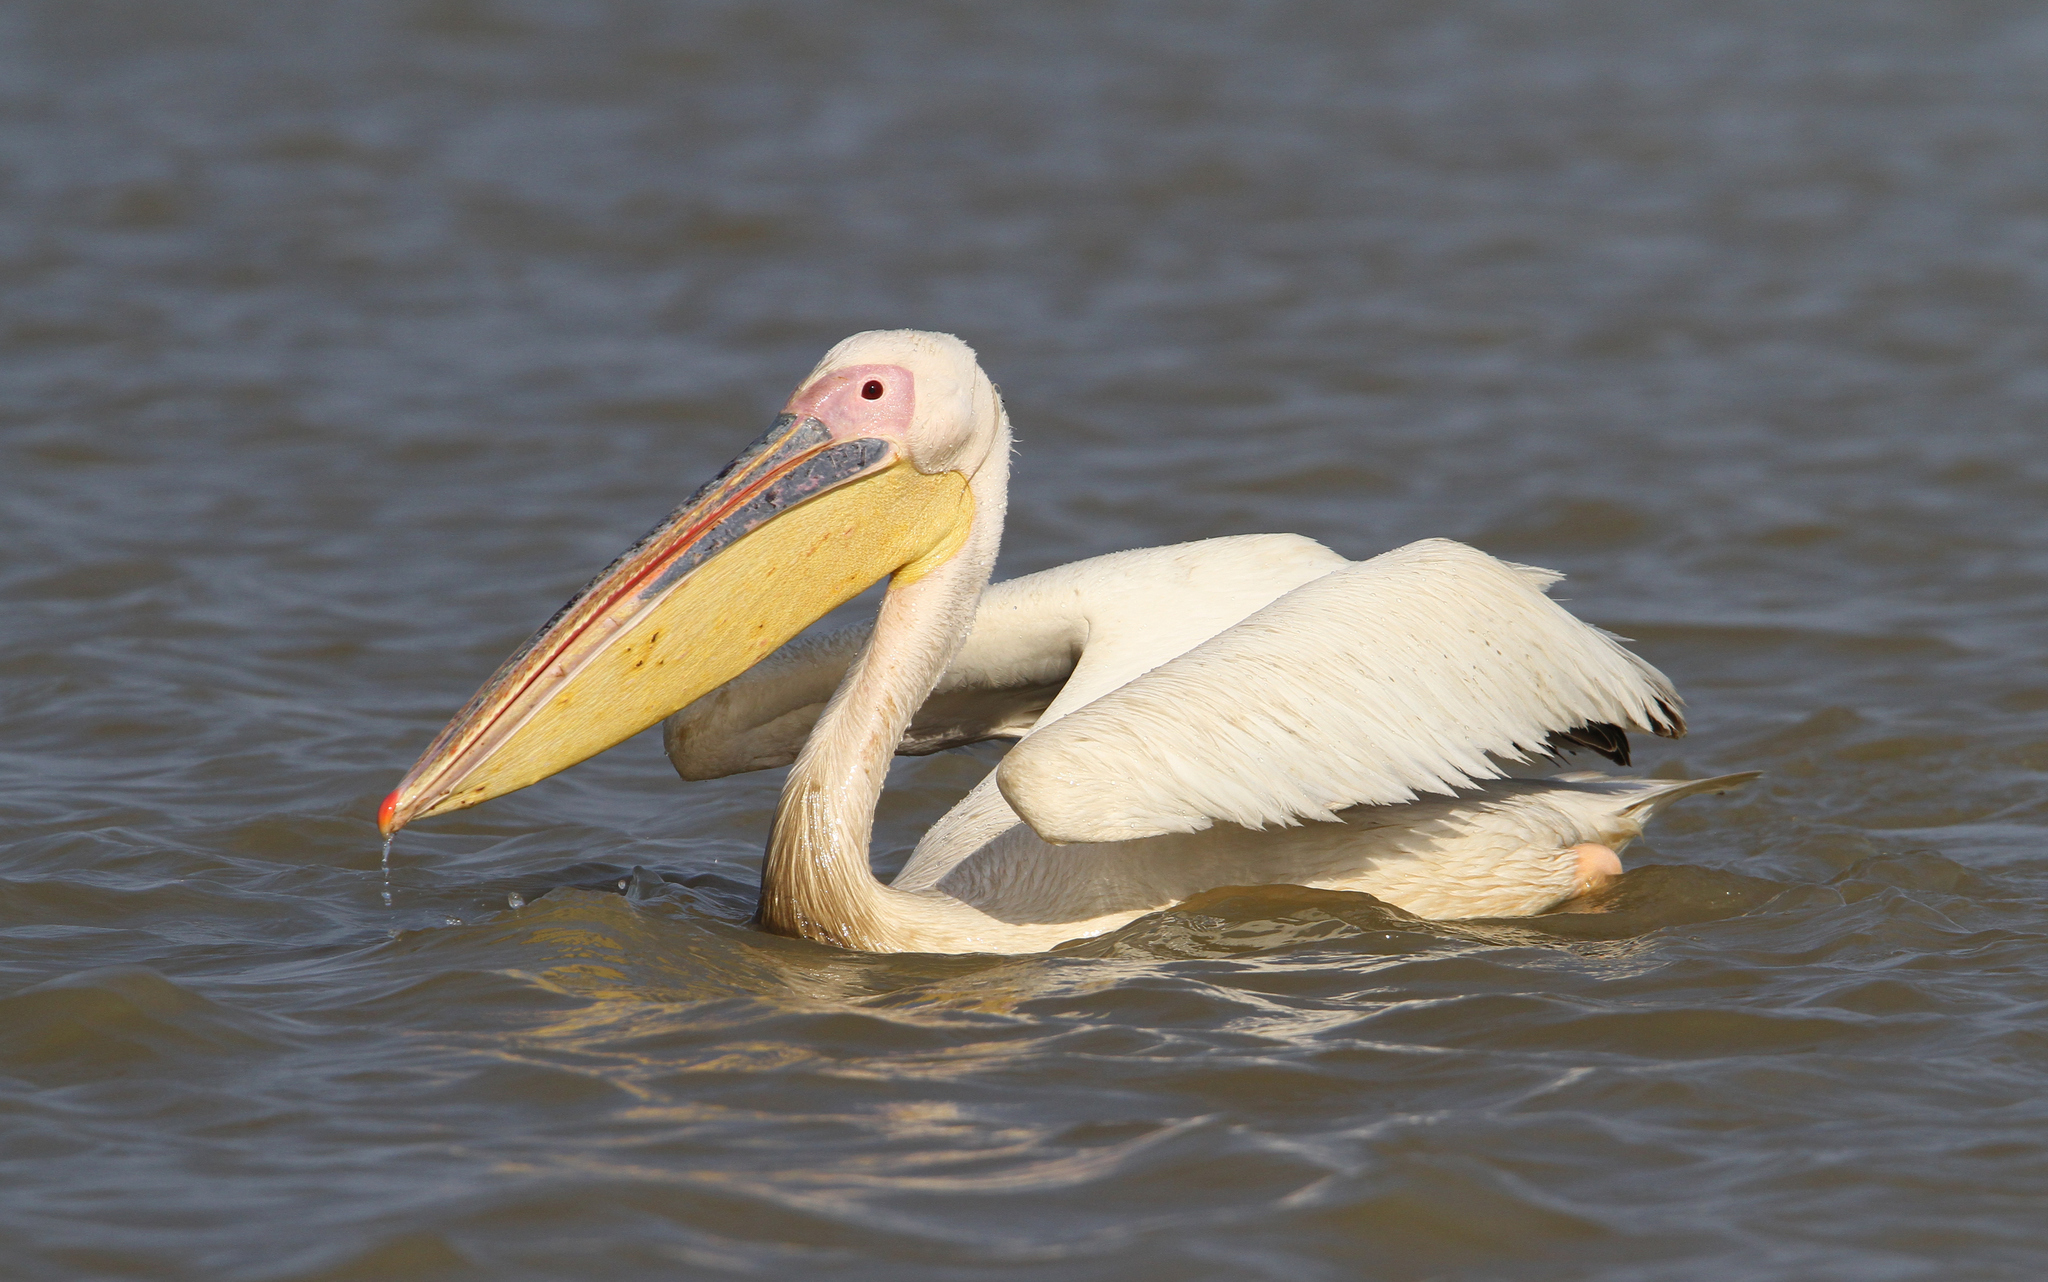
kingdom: Animalia
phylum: Chordata
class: Aves
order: Pelecaniformes
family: Pelecanidae
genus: Pelecanus
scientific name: Pelecanus onocrotalus
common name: Great white pelican
